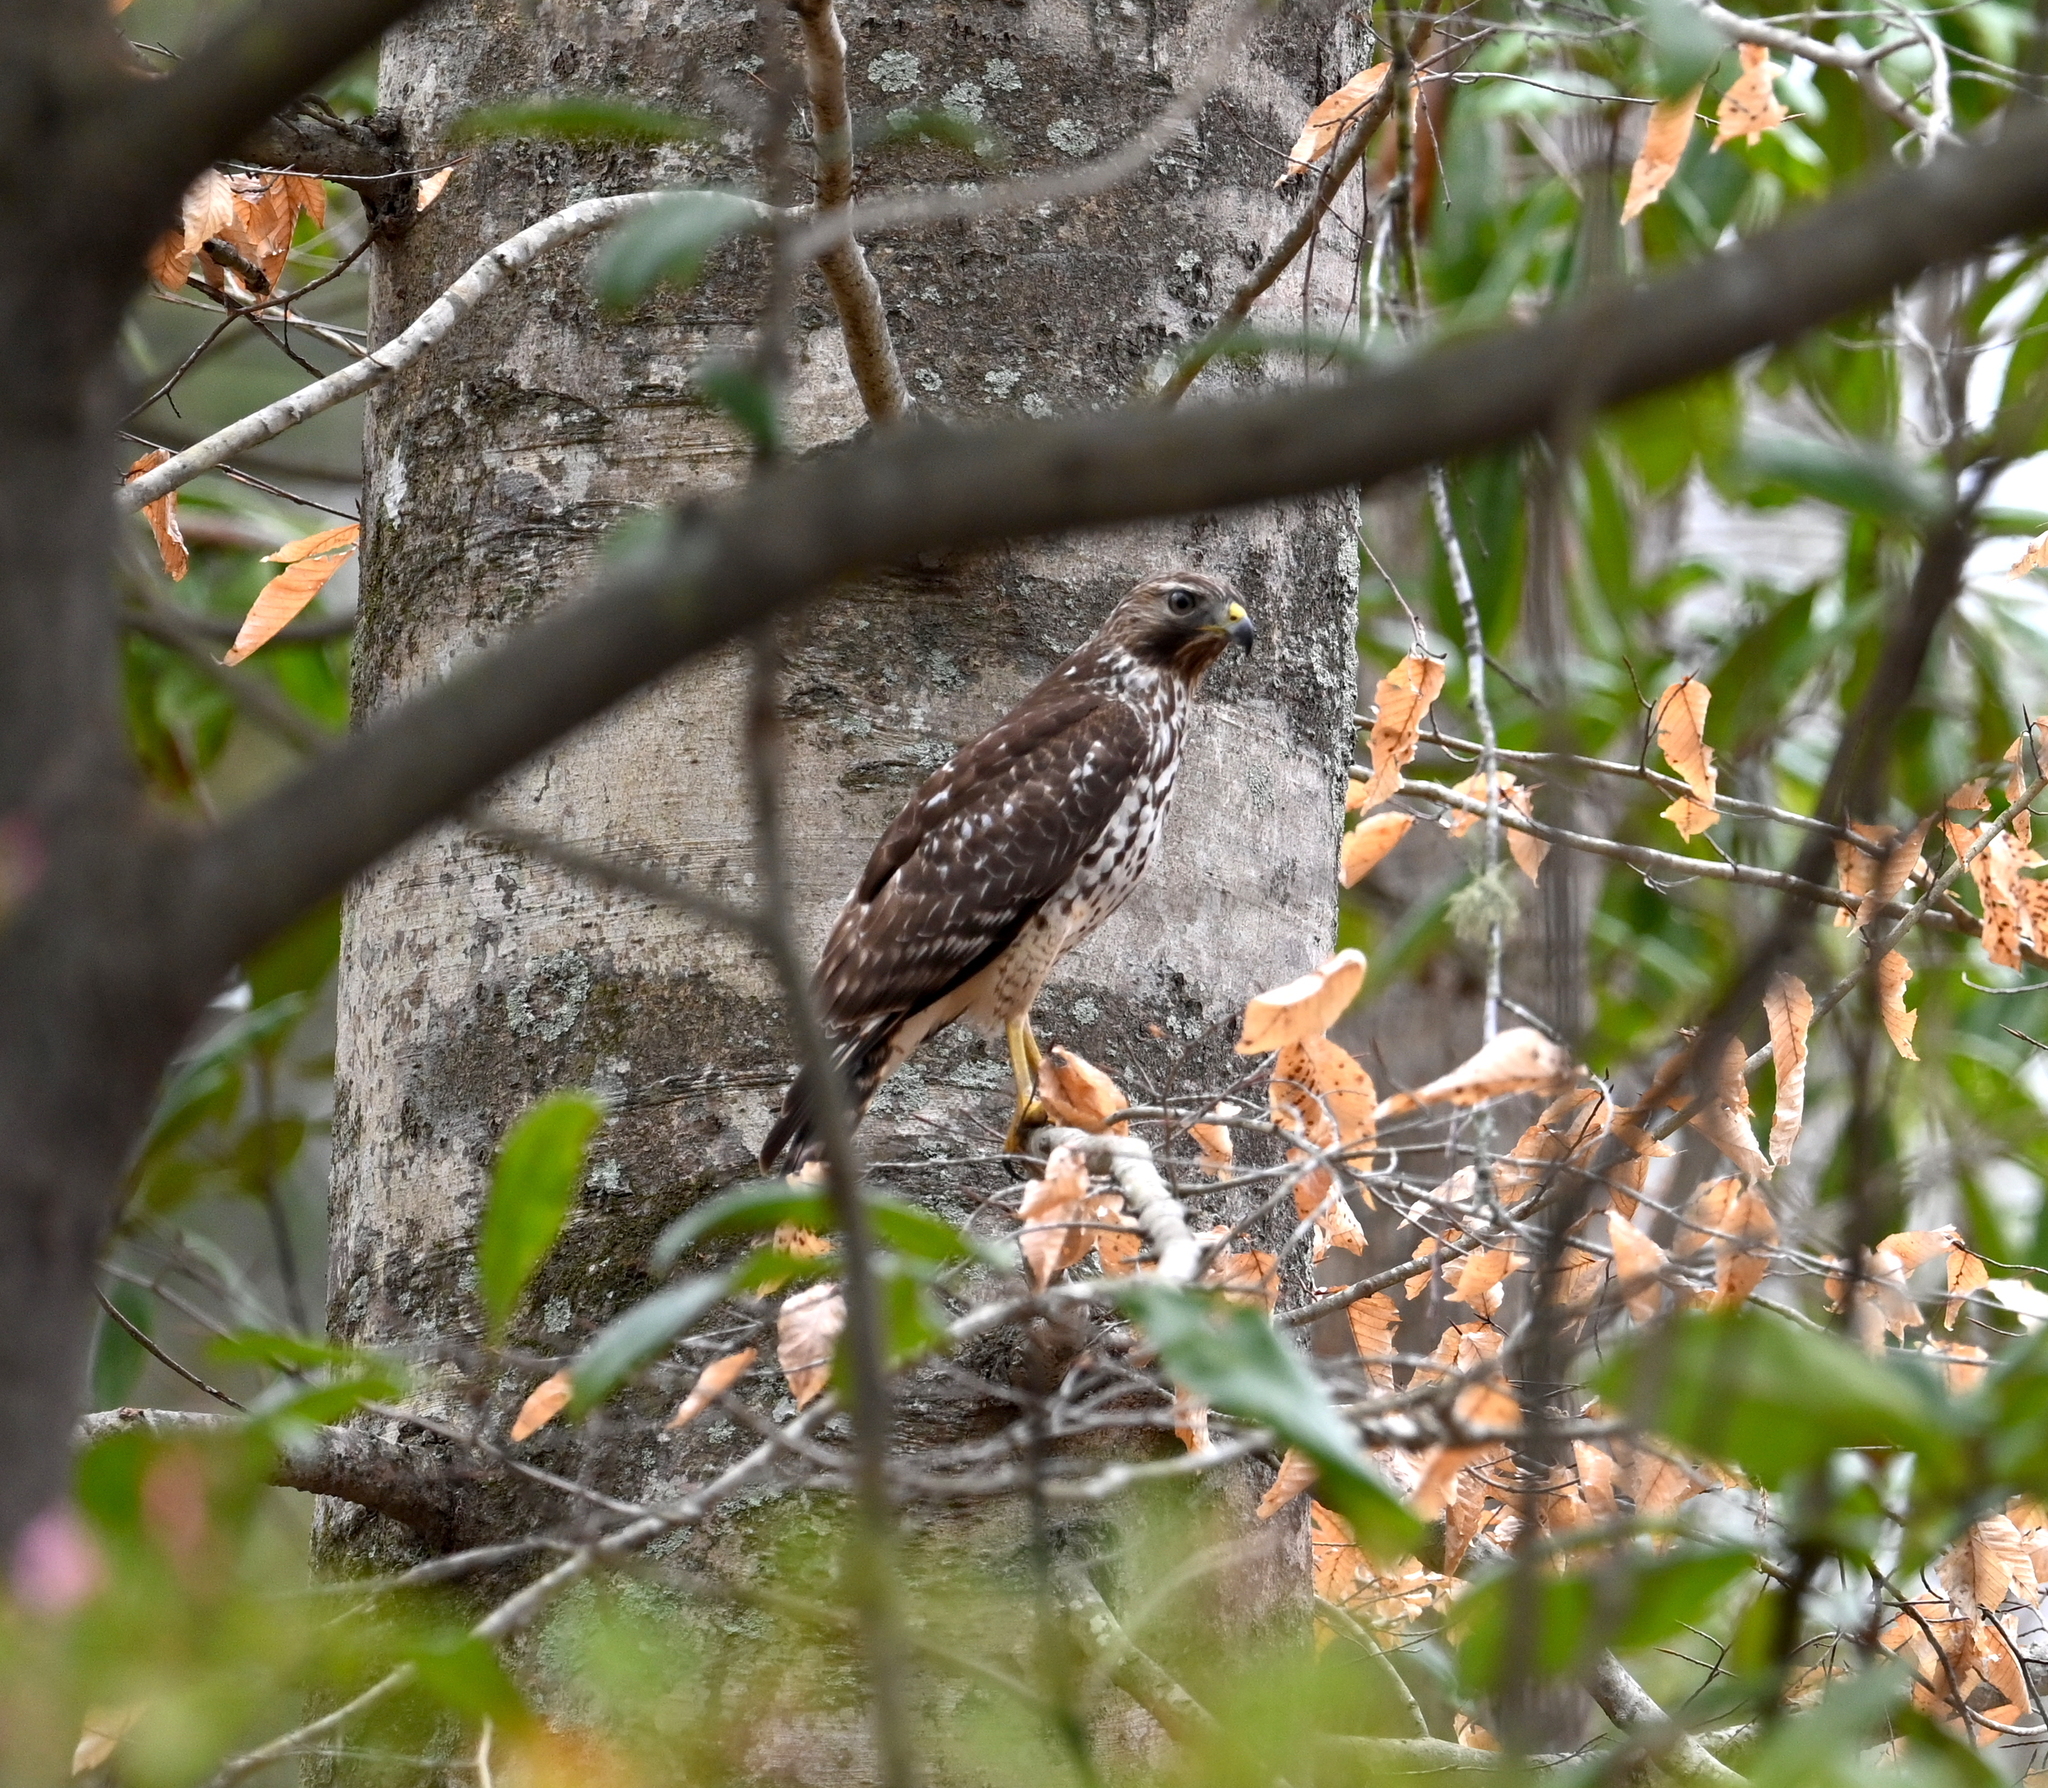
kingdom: Animalia
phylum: Chordata
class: Aves
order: Accipitriformes
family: Accipitridae
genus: Buteo
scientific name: Buteo lineatus
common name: Red-shouldered hawk
